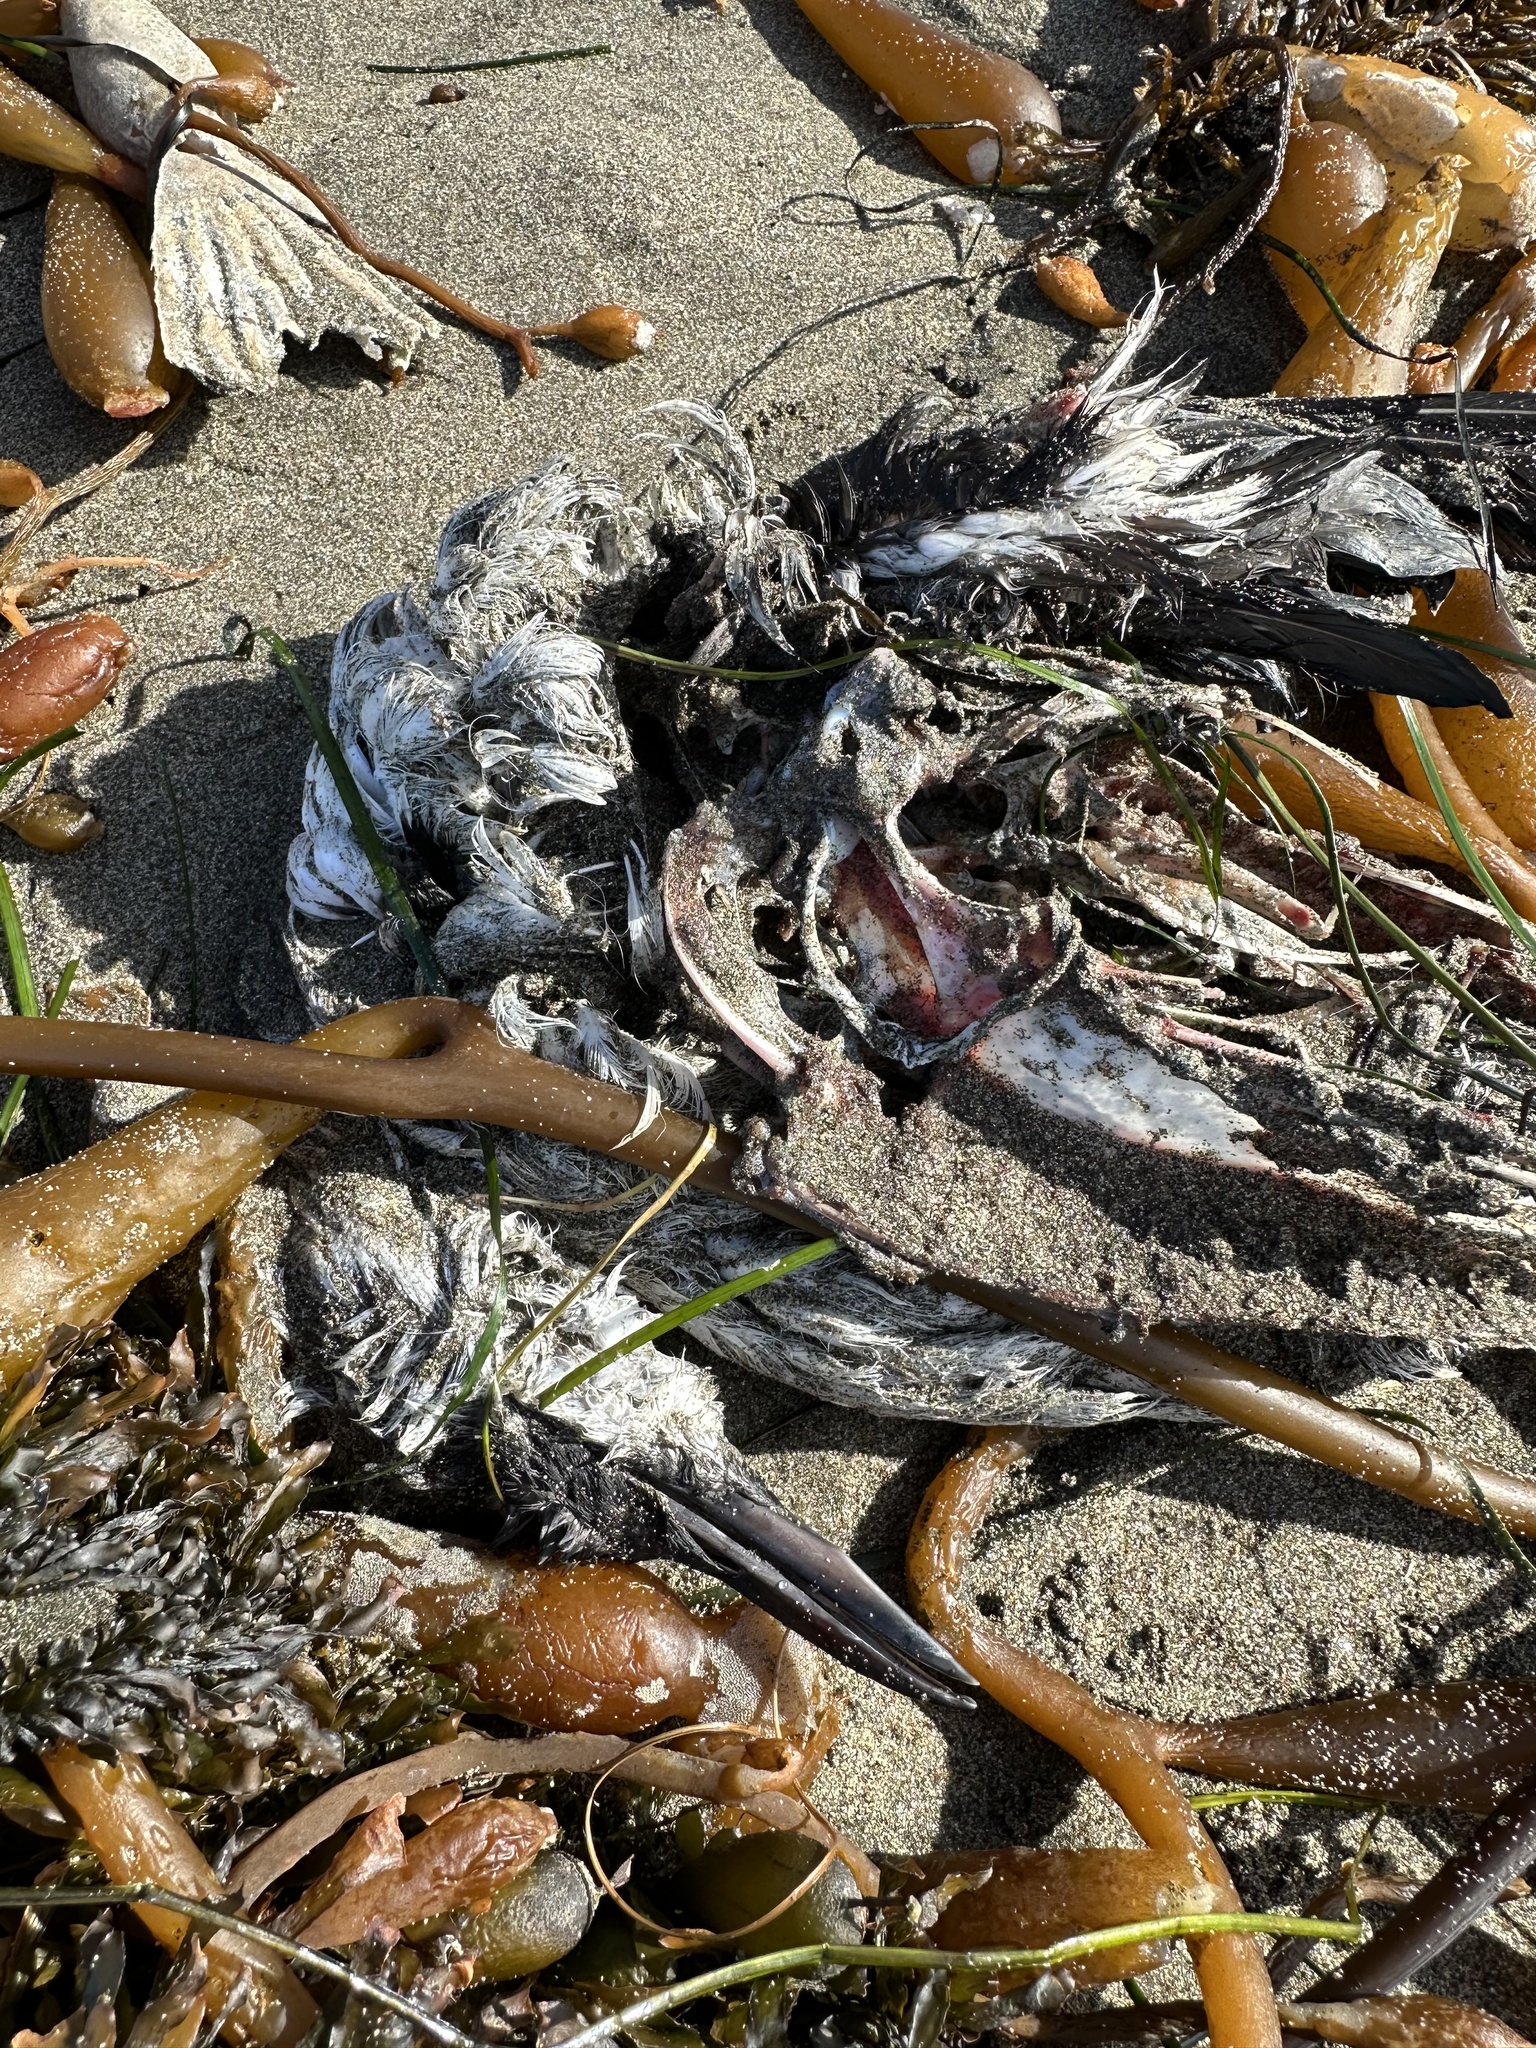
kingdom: Animalia
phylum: Chordata
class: Aves
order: Charadriiformes
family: Alcidae
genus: Uria
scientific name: Uria aalge
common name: Common murre
